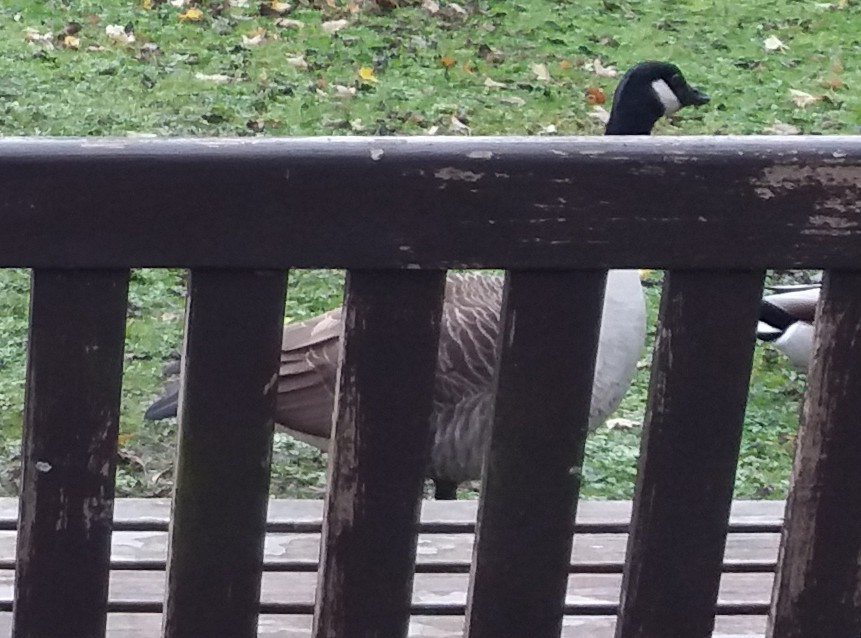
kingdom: Animalia
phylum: Chordata
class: Aves
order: Anseriformes
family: Anatidae
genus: Branta
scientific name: Branta canadensis
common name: Canada goose
